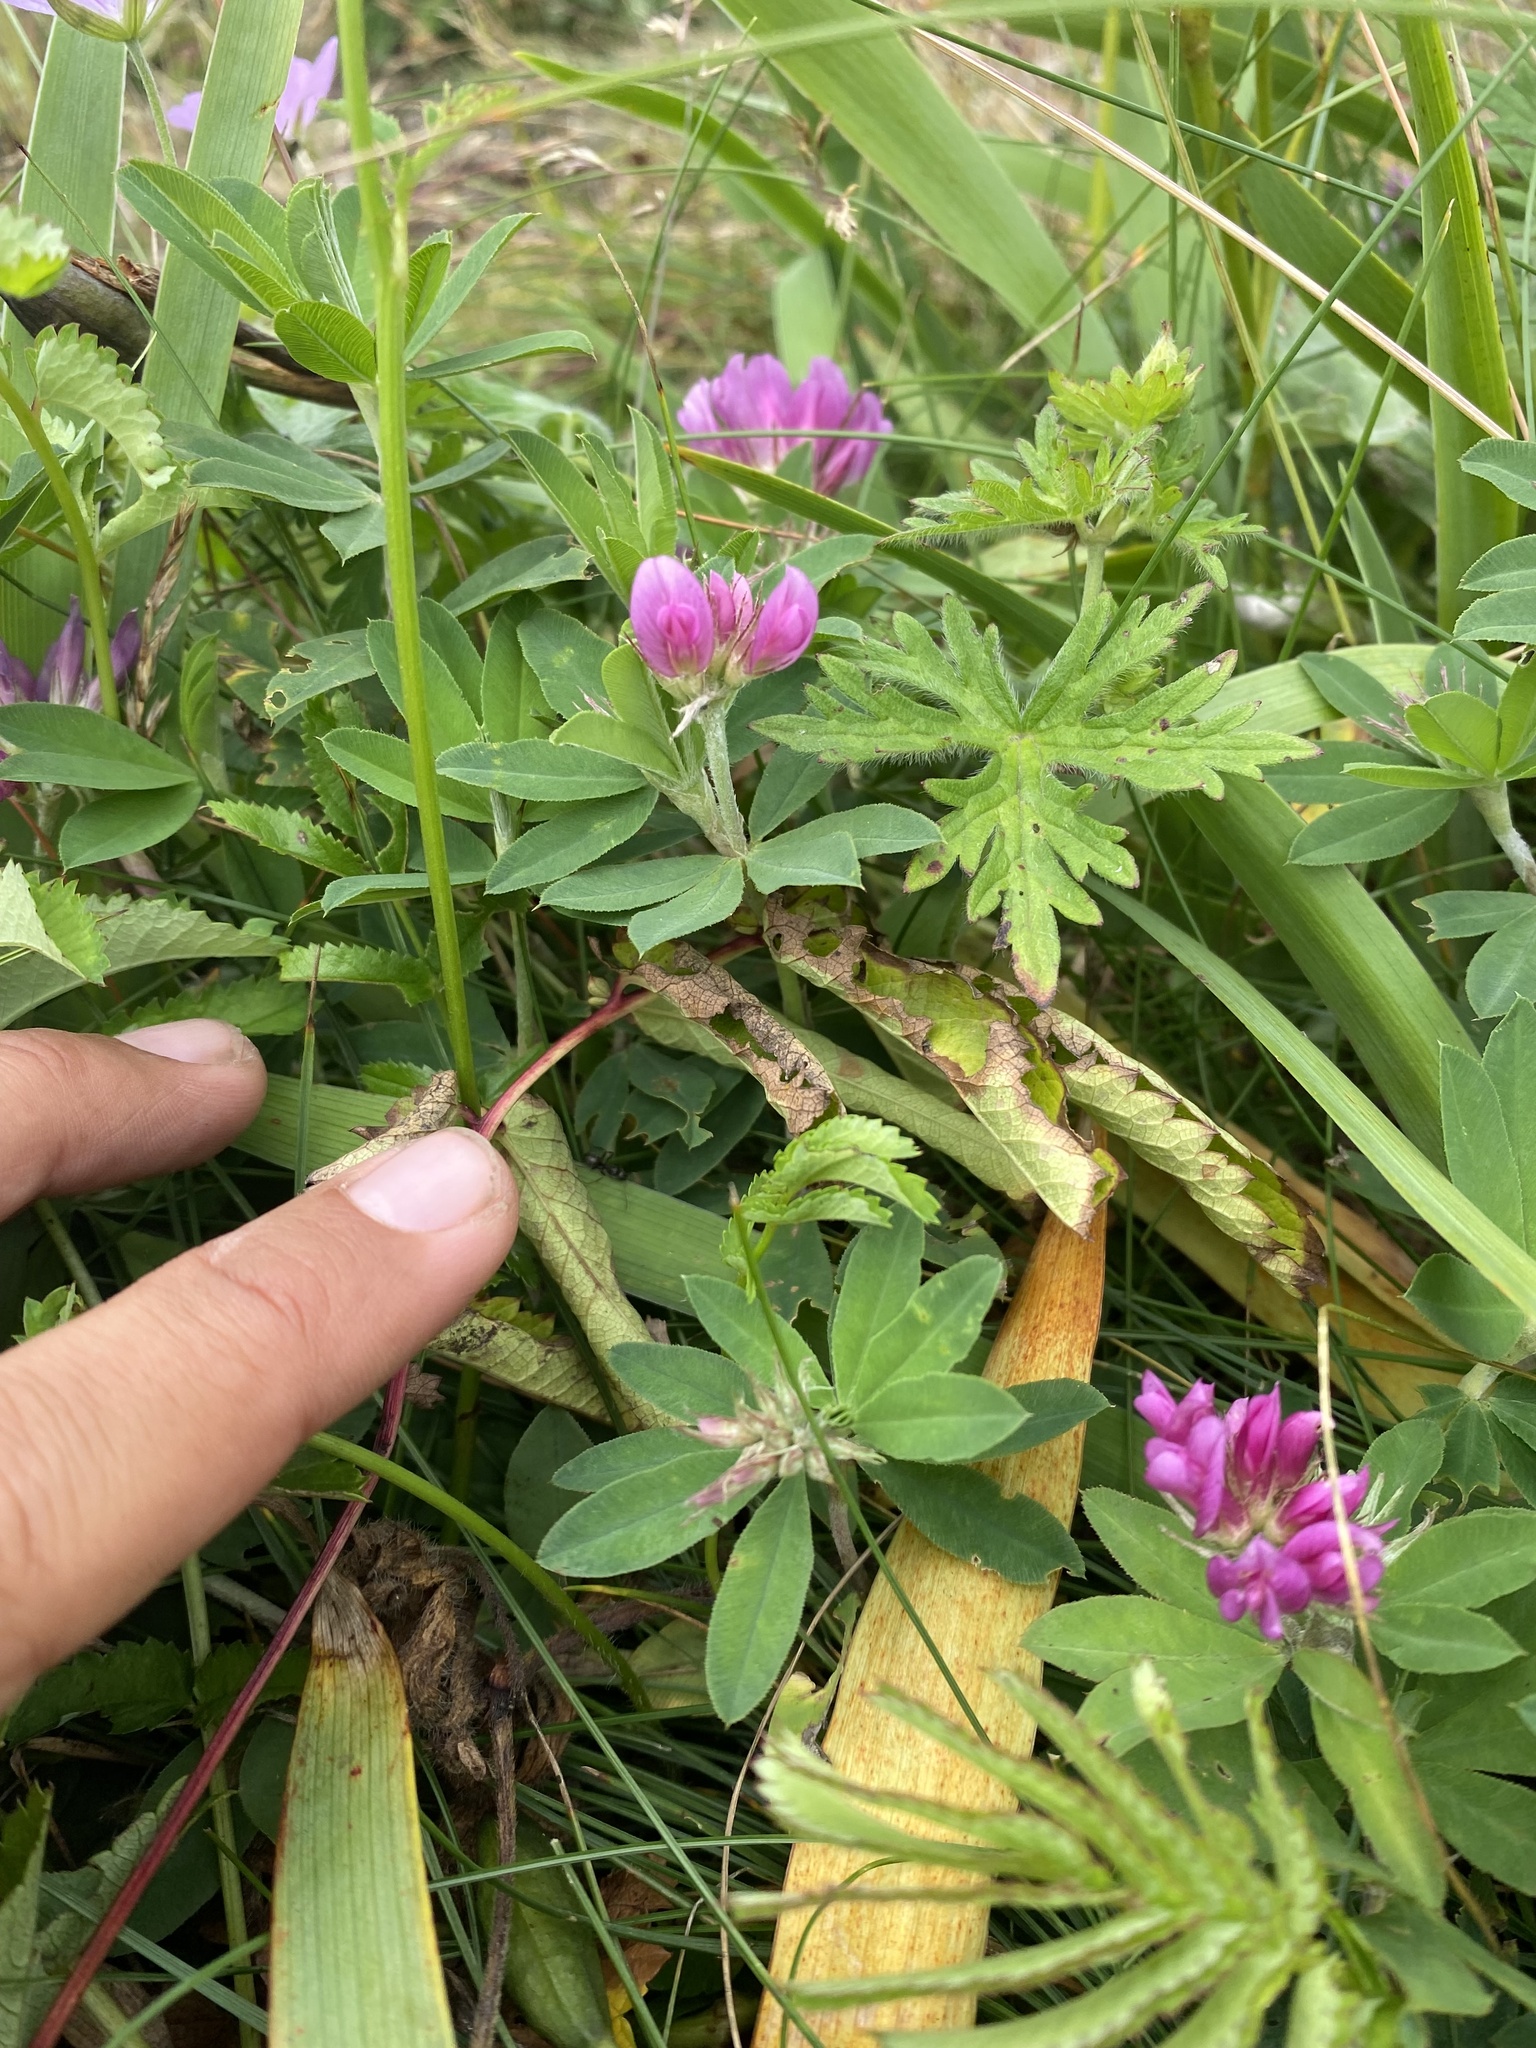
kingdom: Plantae
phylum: Tracheophyta
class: Magnoliopsida
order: Fabales
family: Fabaceae
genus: Trifolium
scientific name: Trifolium lupinaster
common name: Lupine clover
